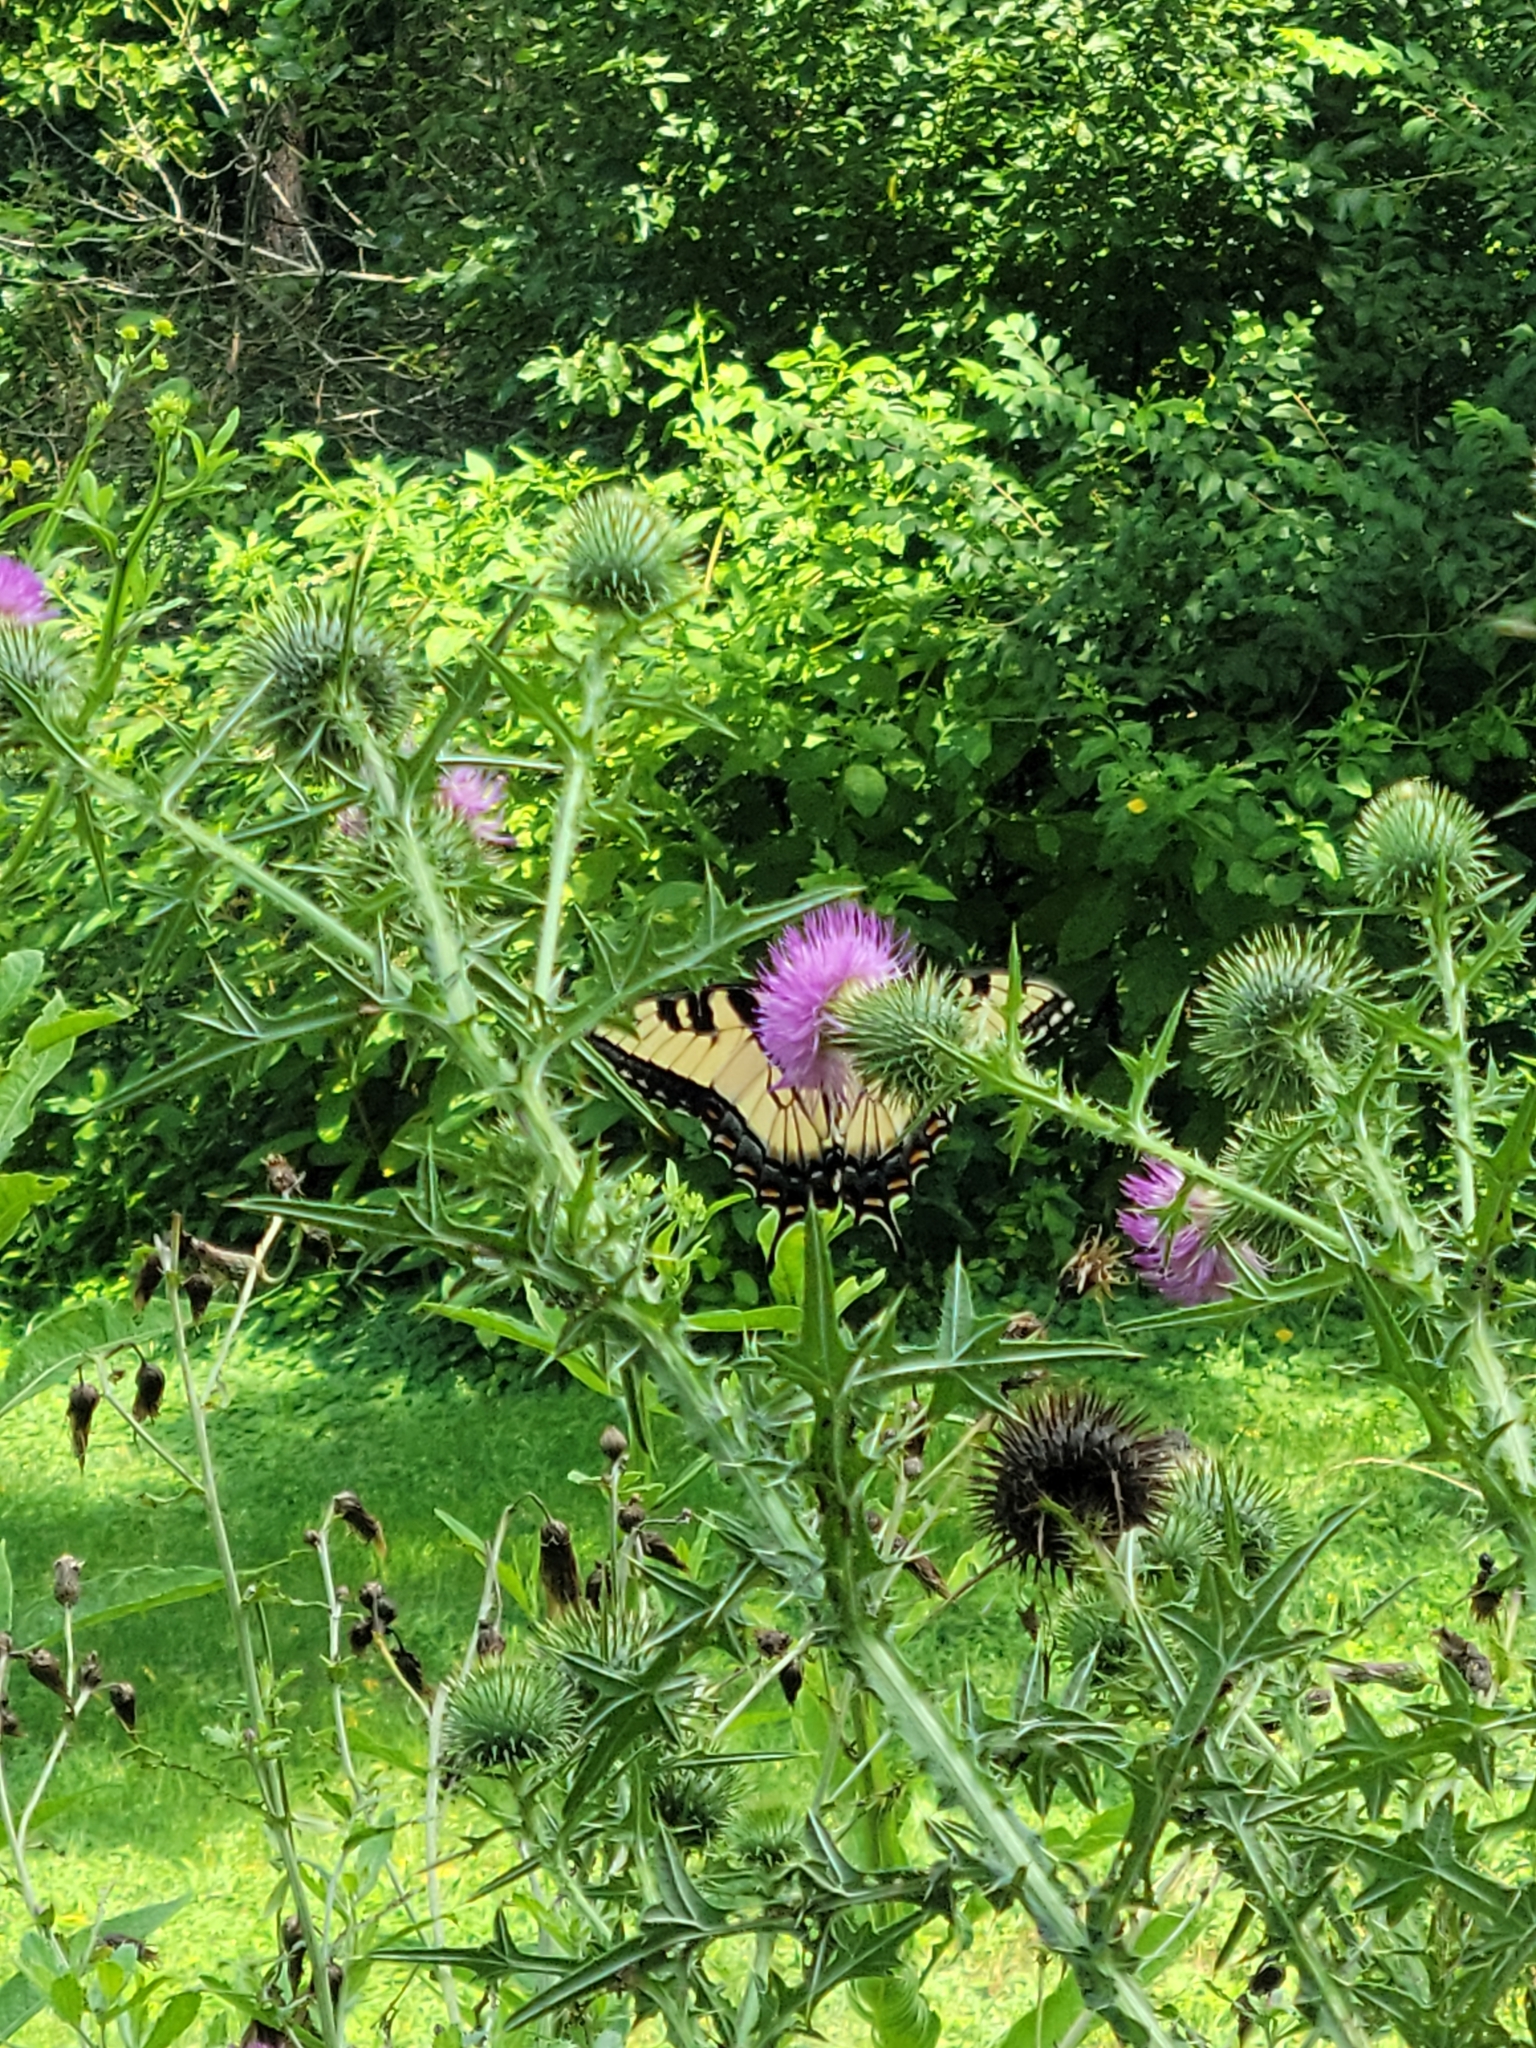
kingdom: Animalia
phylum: Arthropoda
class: Insecta
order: Lepidoptera
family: Papilionidae
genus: Papilio
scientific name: Papilio glaucus
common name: Tiger swallowtail
